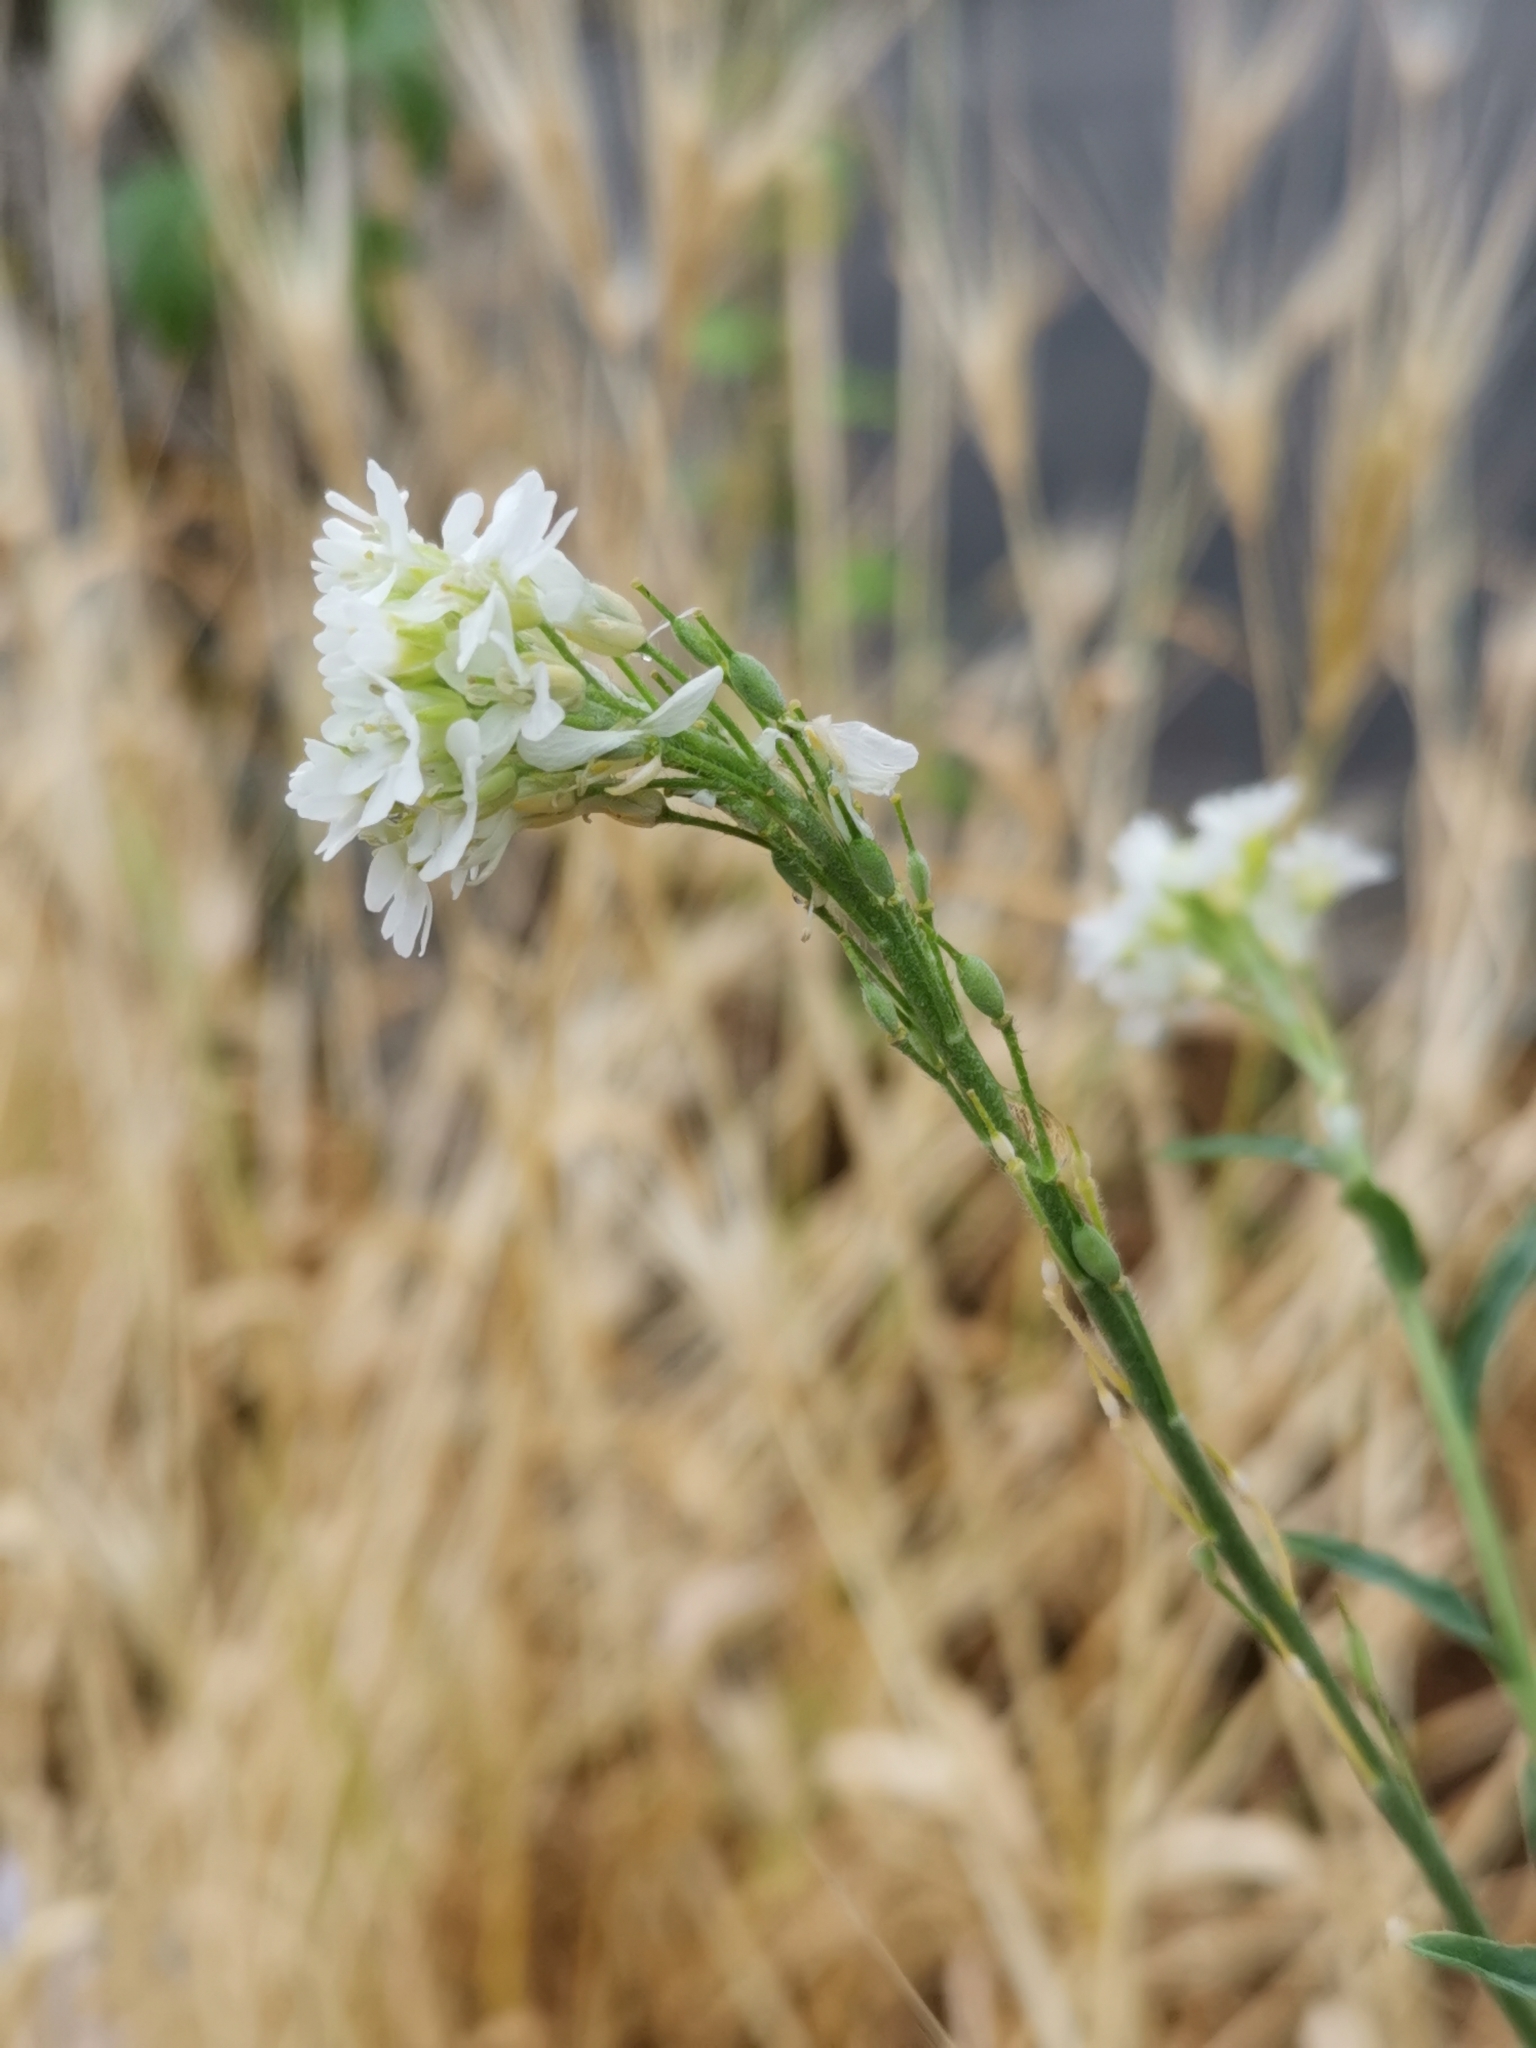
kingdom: Plantae
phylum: Tracheophyta
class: Magnoliopsida
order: Brassicales
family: Brassicaceae
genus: Berteroa
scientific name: Berteroa incana
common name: Hoary alison
